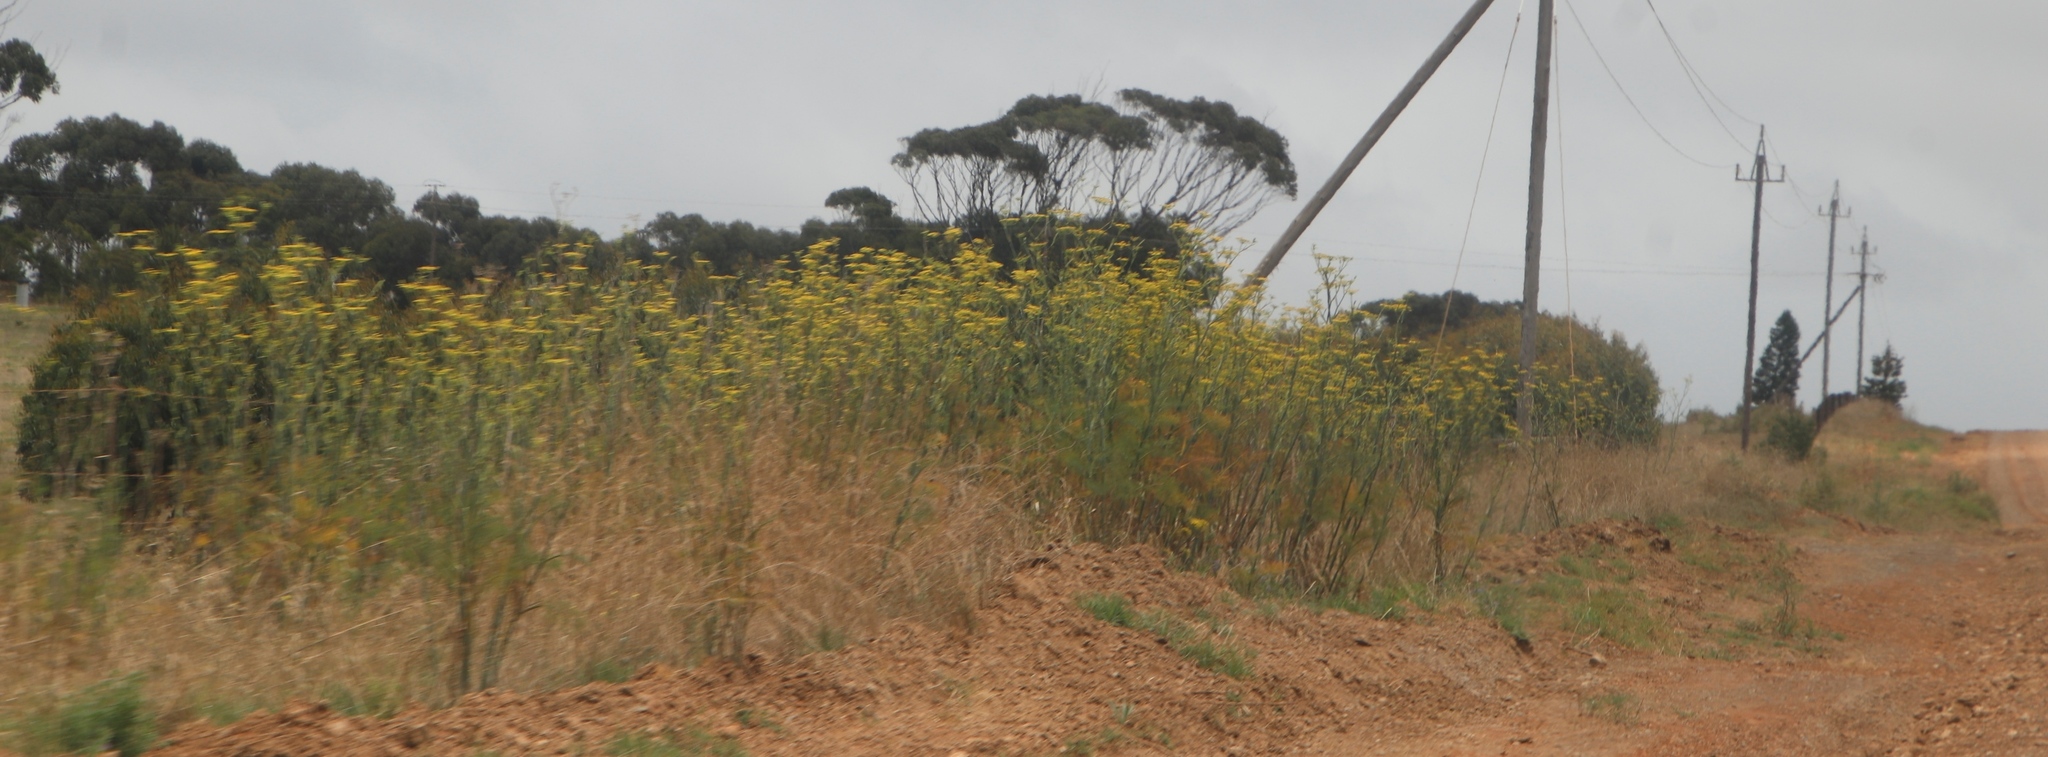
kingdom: Plantae
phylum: Tracheophyta
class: Magnoliopsida
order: Apiales
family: Apiaceae
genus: Foeniculum
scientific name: Foeniculum vulgare
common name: Fennel
